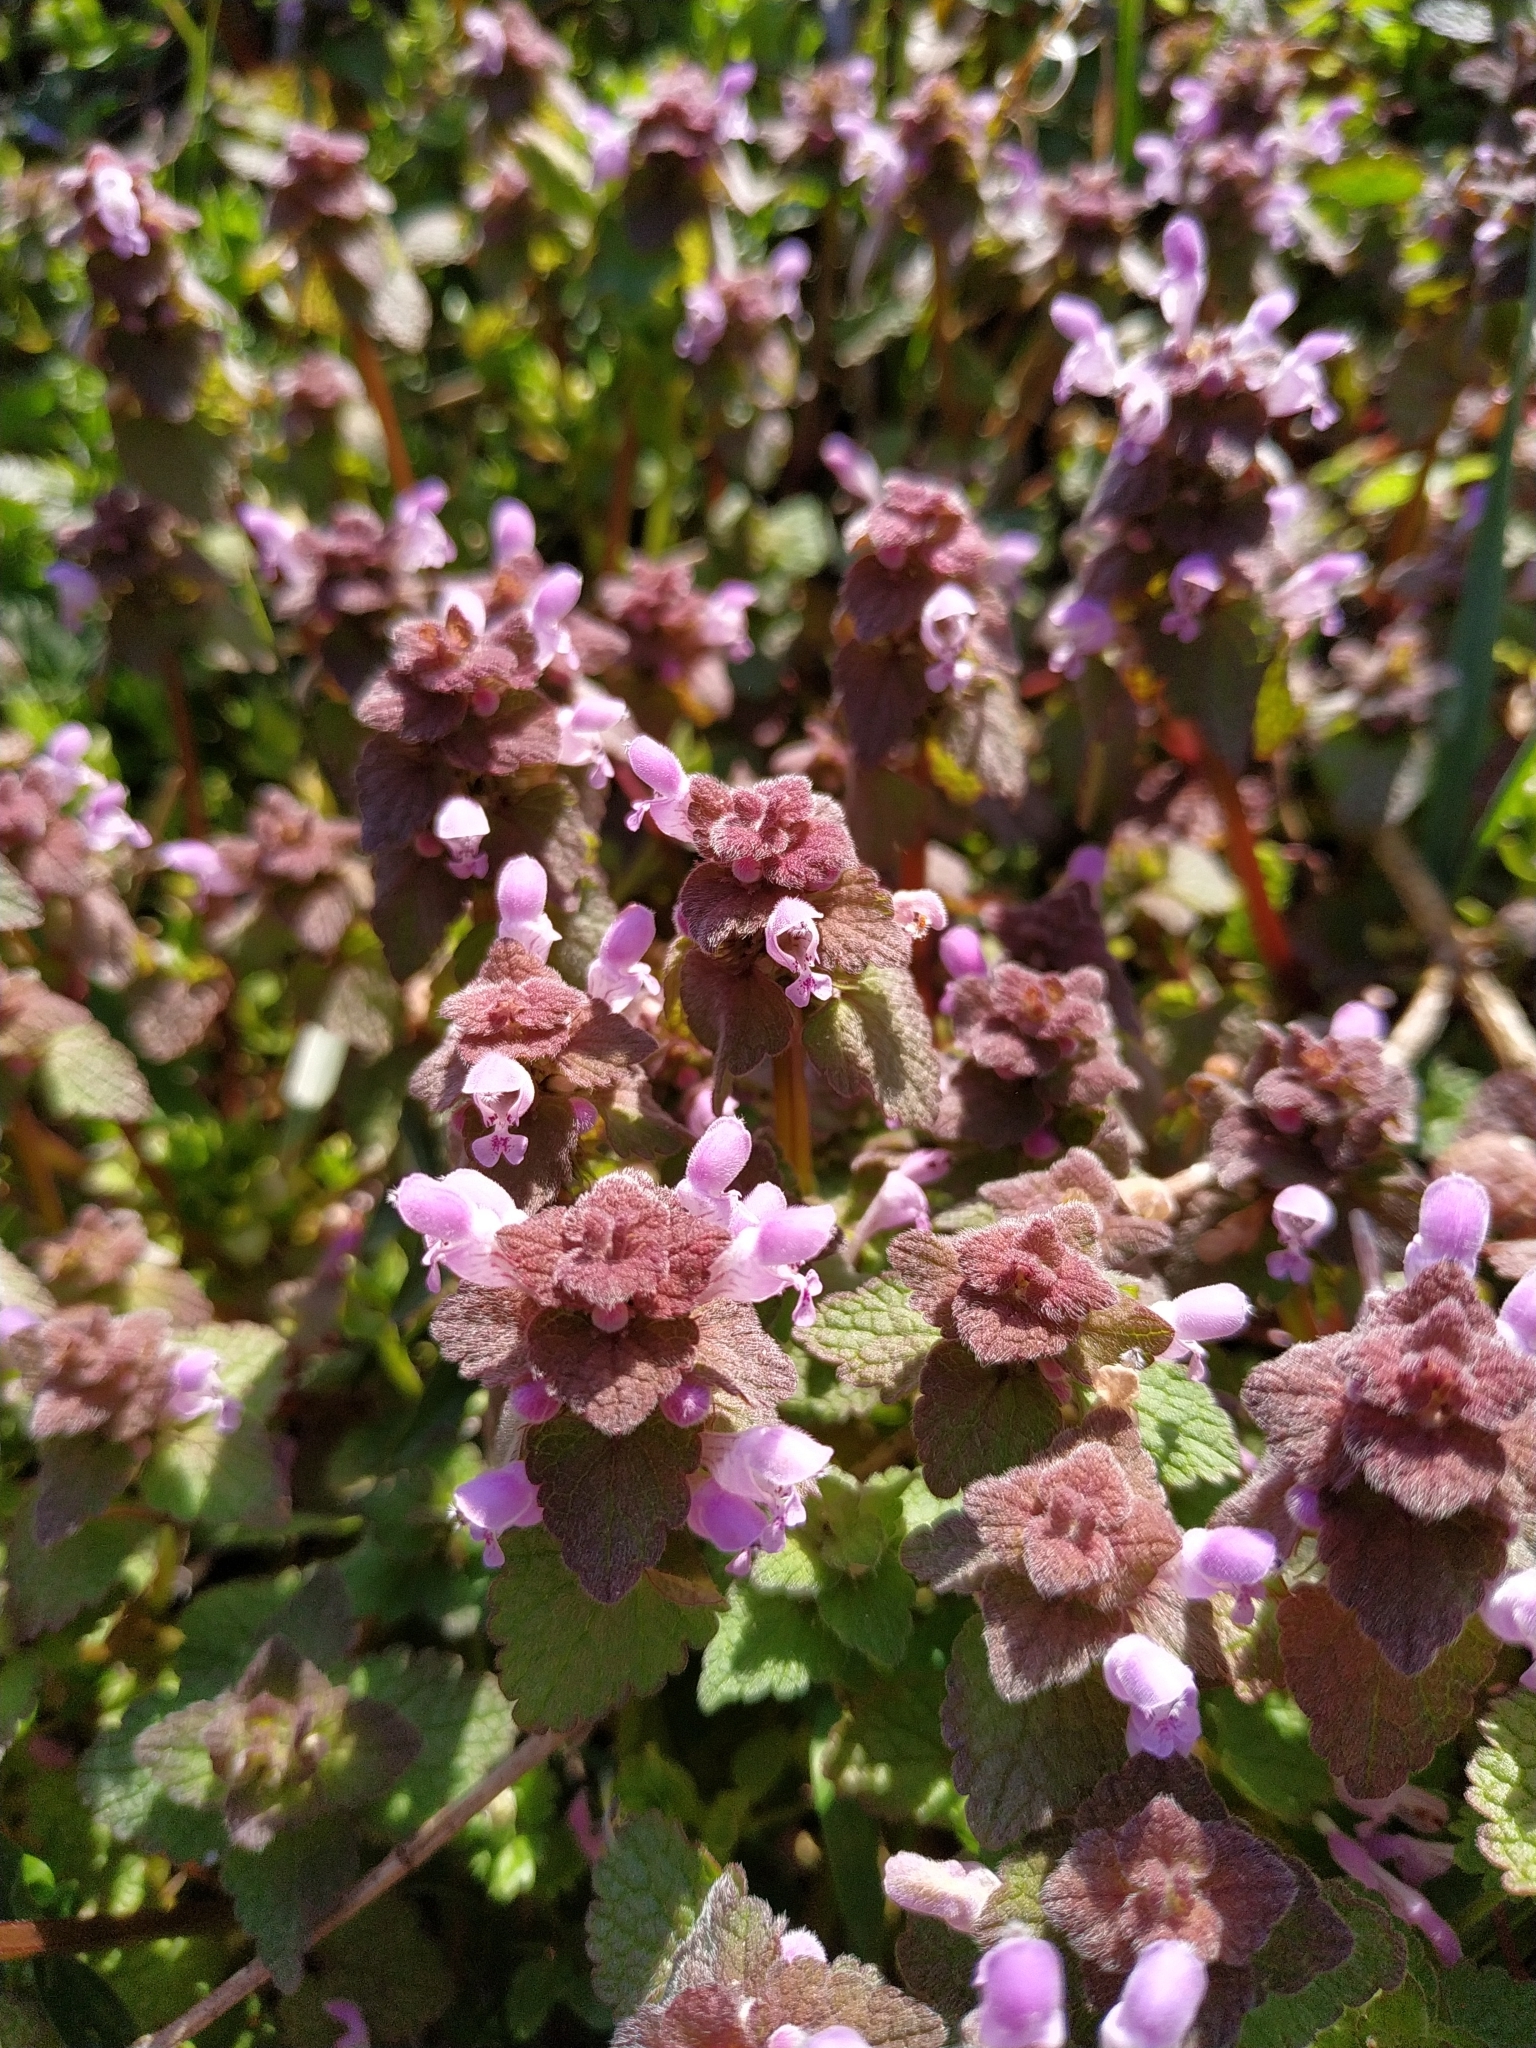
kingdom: Plantae
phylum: Tracheophyta
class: Magnoliopsida
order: Lamiales
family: Lamiaceae
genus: Lamium
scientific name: Lamium purpureum
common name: Red dead-nettle
